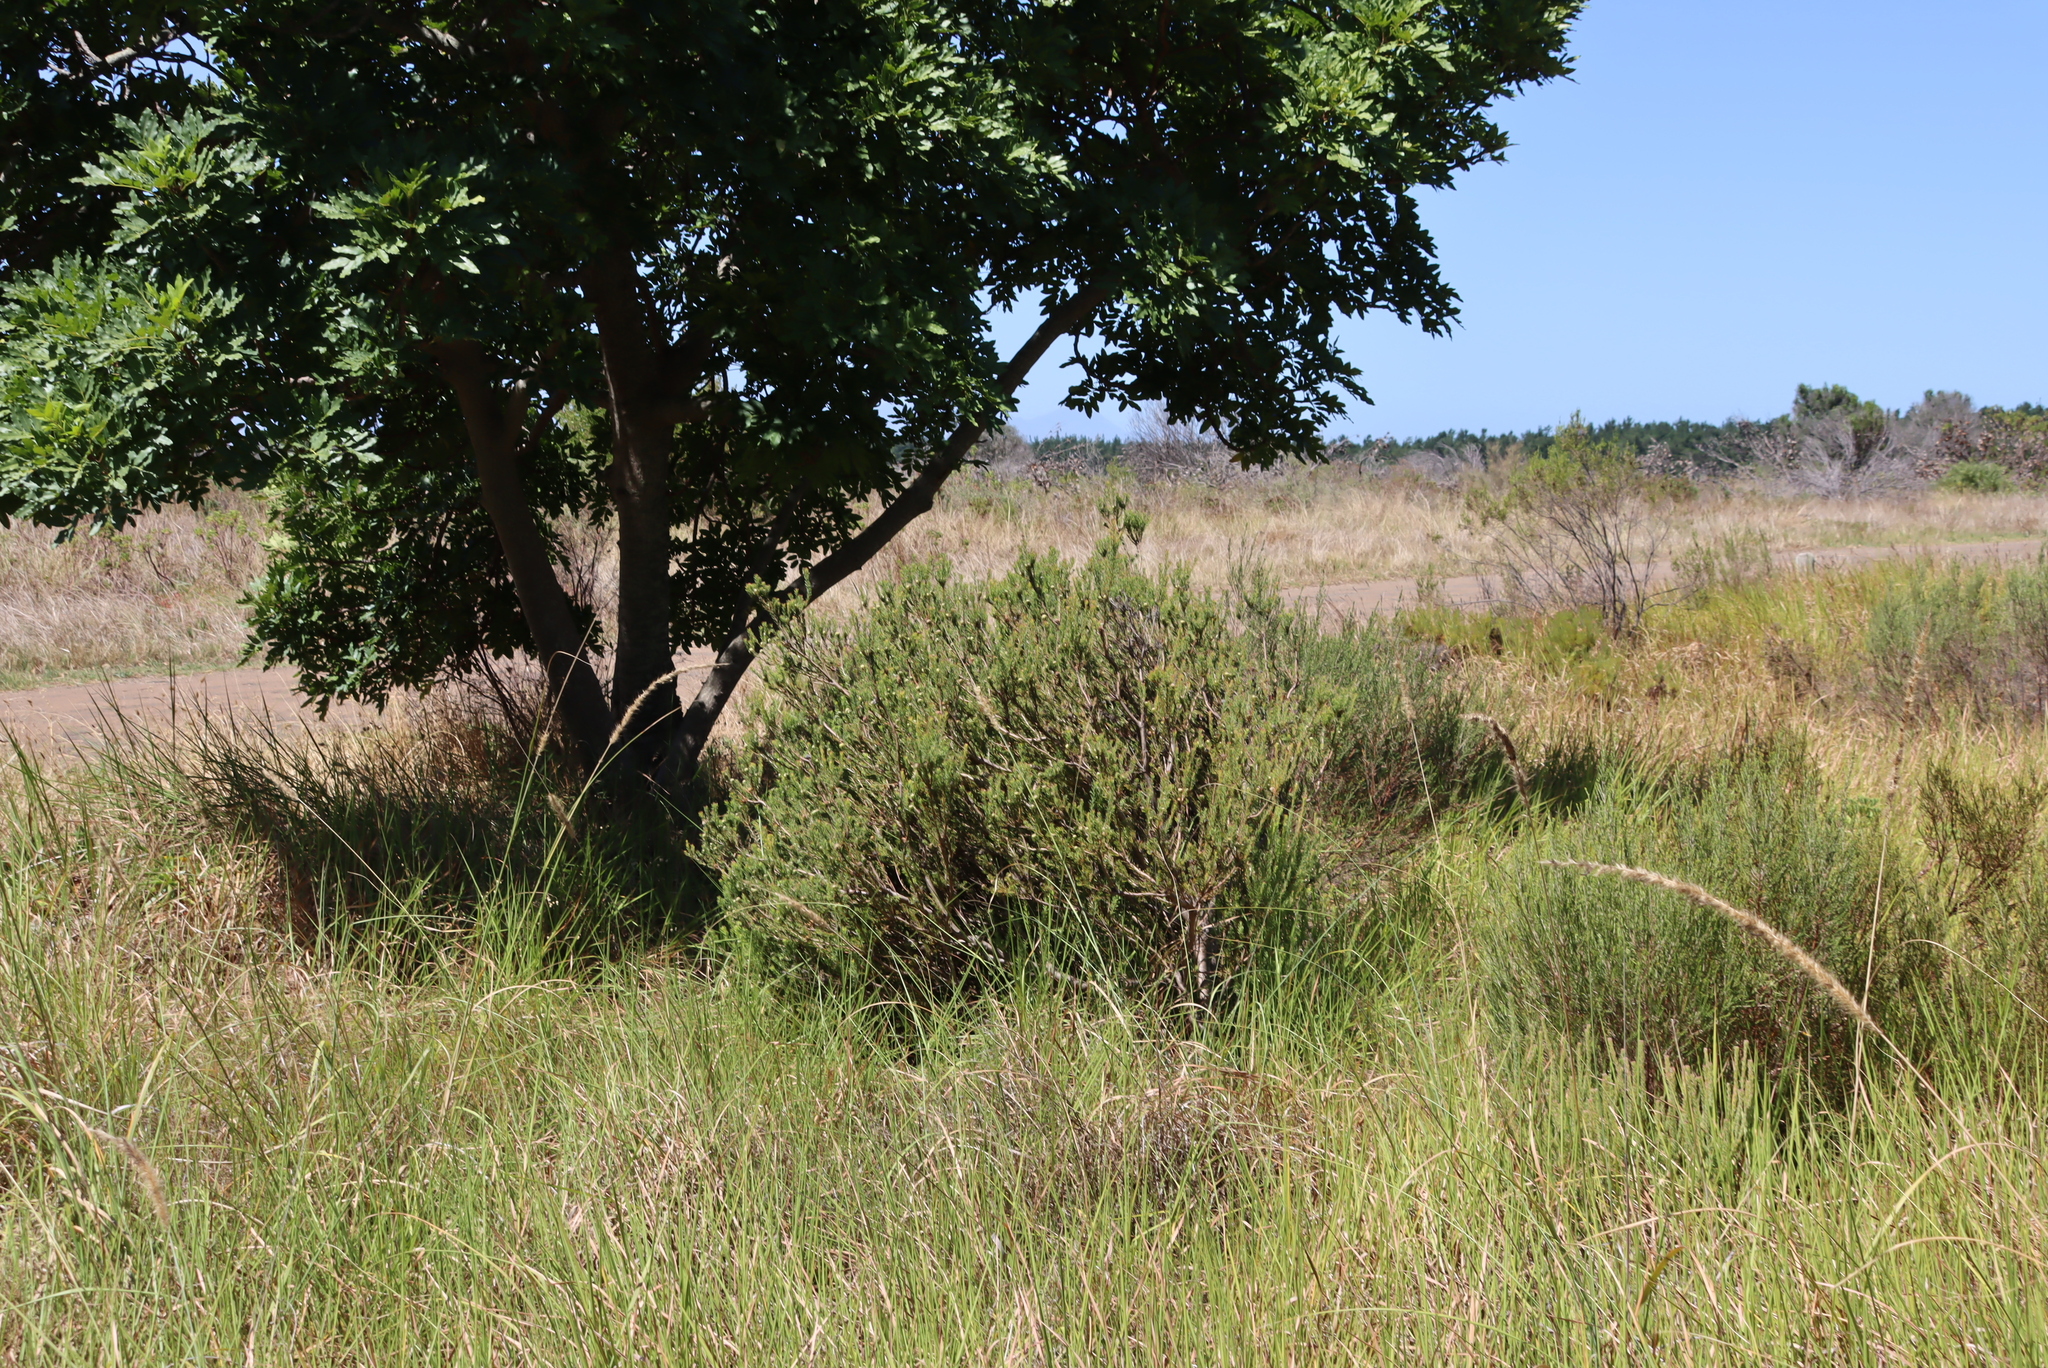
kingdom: Plantae
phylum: Tracheophyta
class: Magnoliopsida
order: Proteales
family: Proteaceae
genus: Leucadendron
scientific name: Leucadendron levisanus
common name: Cape flats conebush
